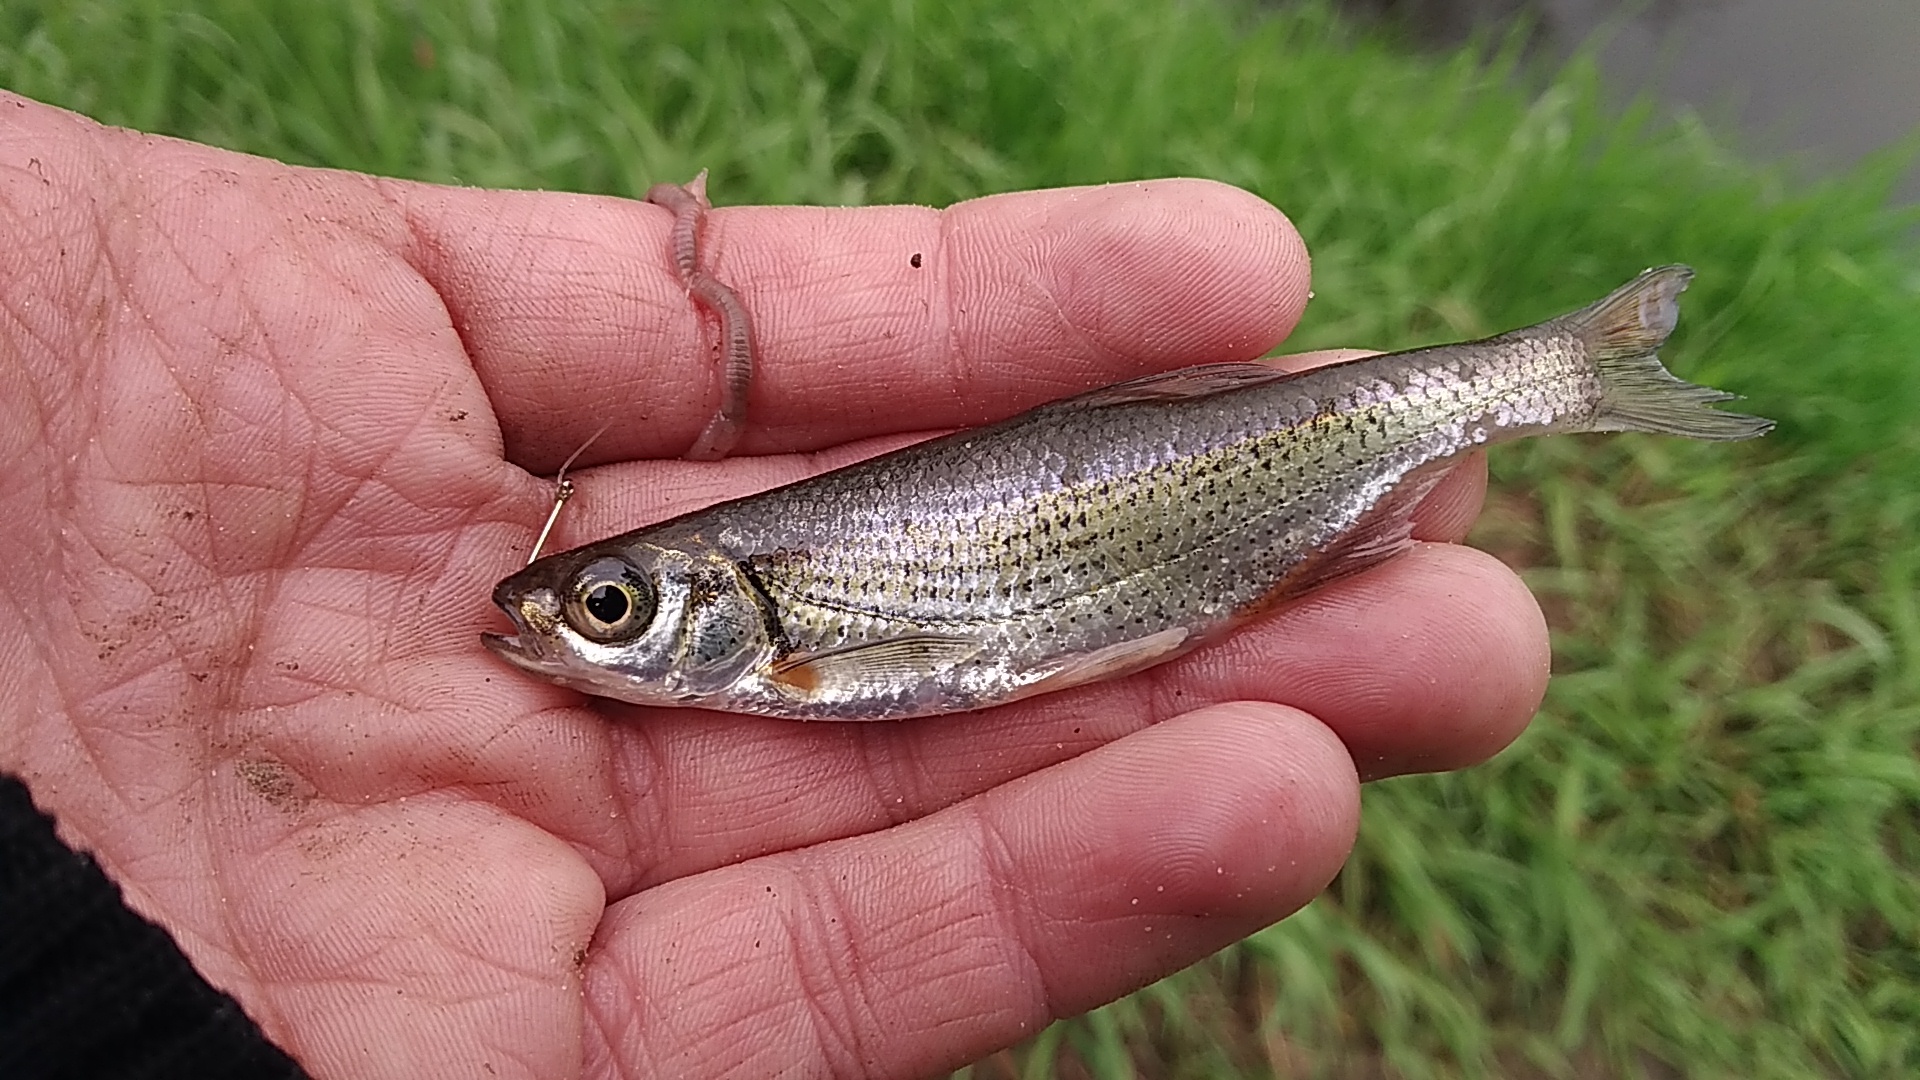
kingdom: Animalia
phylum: Chordata
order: Cypriniformes
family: Cyprinidae
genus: Alburnoides
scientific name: Alburnoides bipunctatus
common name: Spirlin
